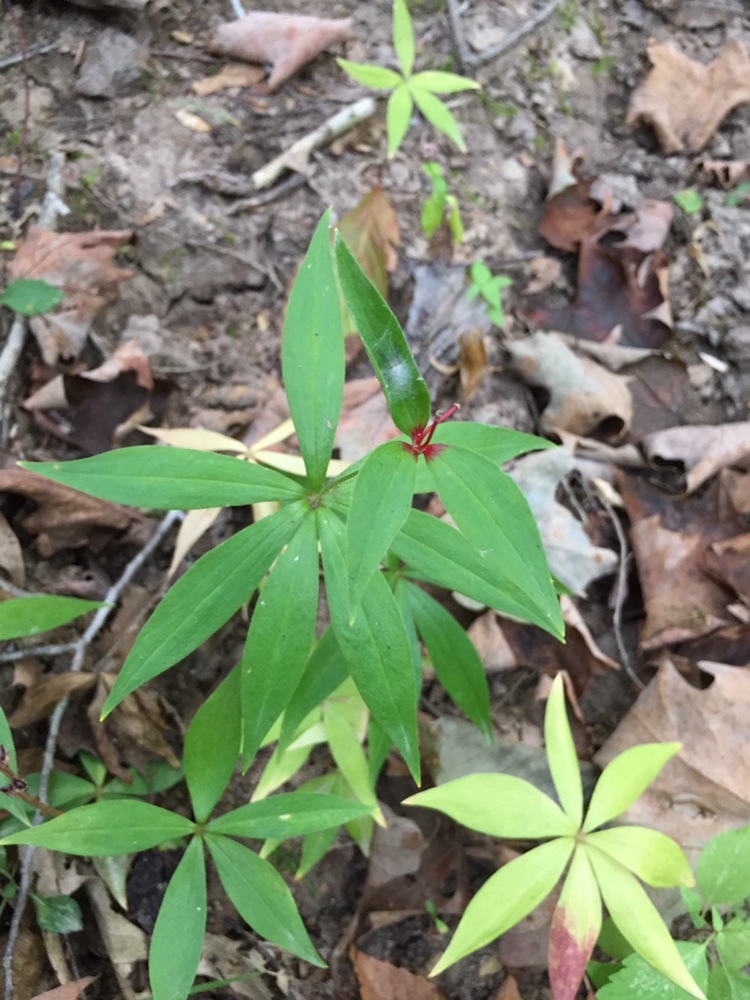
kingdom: Plantae
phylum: Tracheophyta
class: Liliopsida
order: Liliales
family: Liliaceae
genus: Medeola
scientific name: Medeola virginiana
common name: Indian cucumber-root
